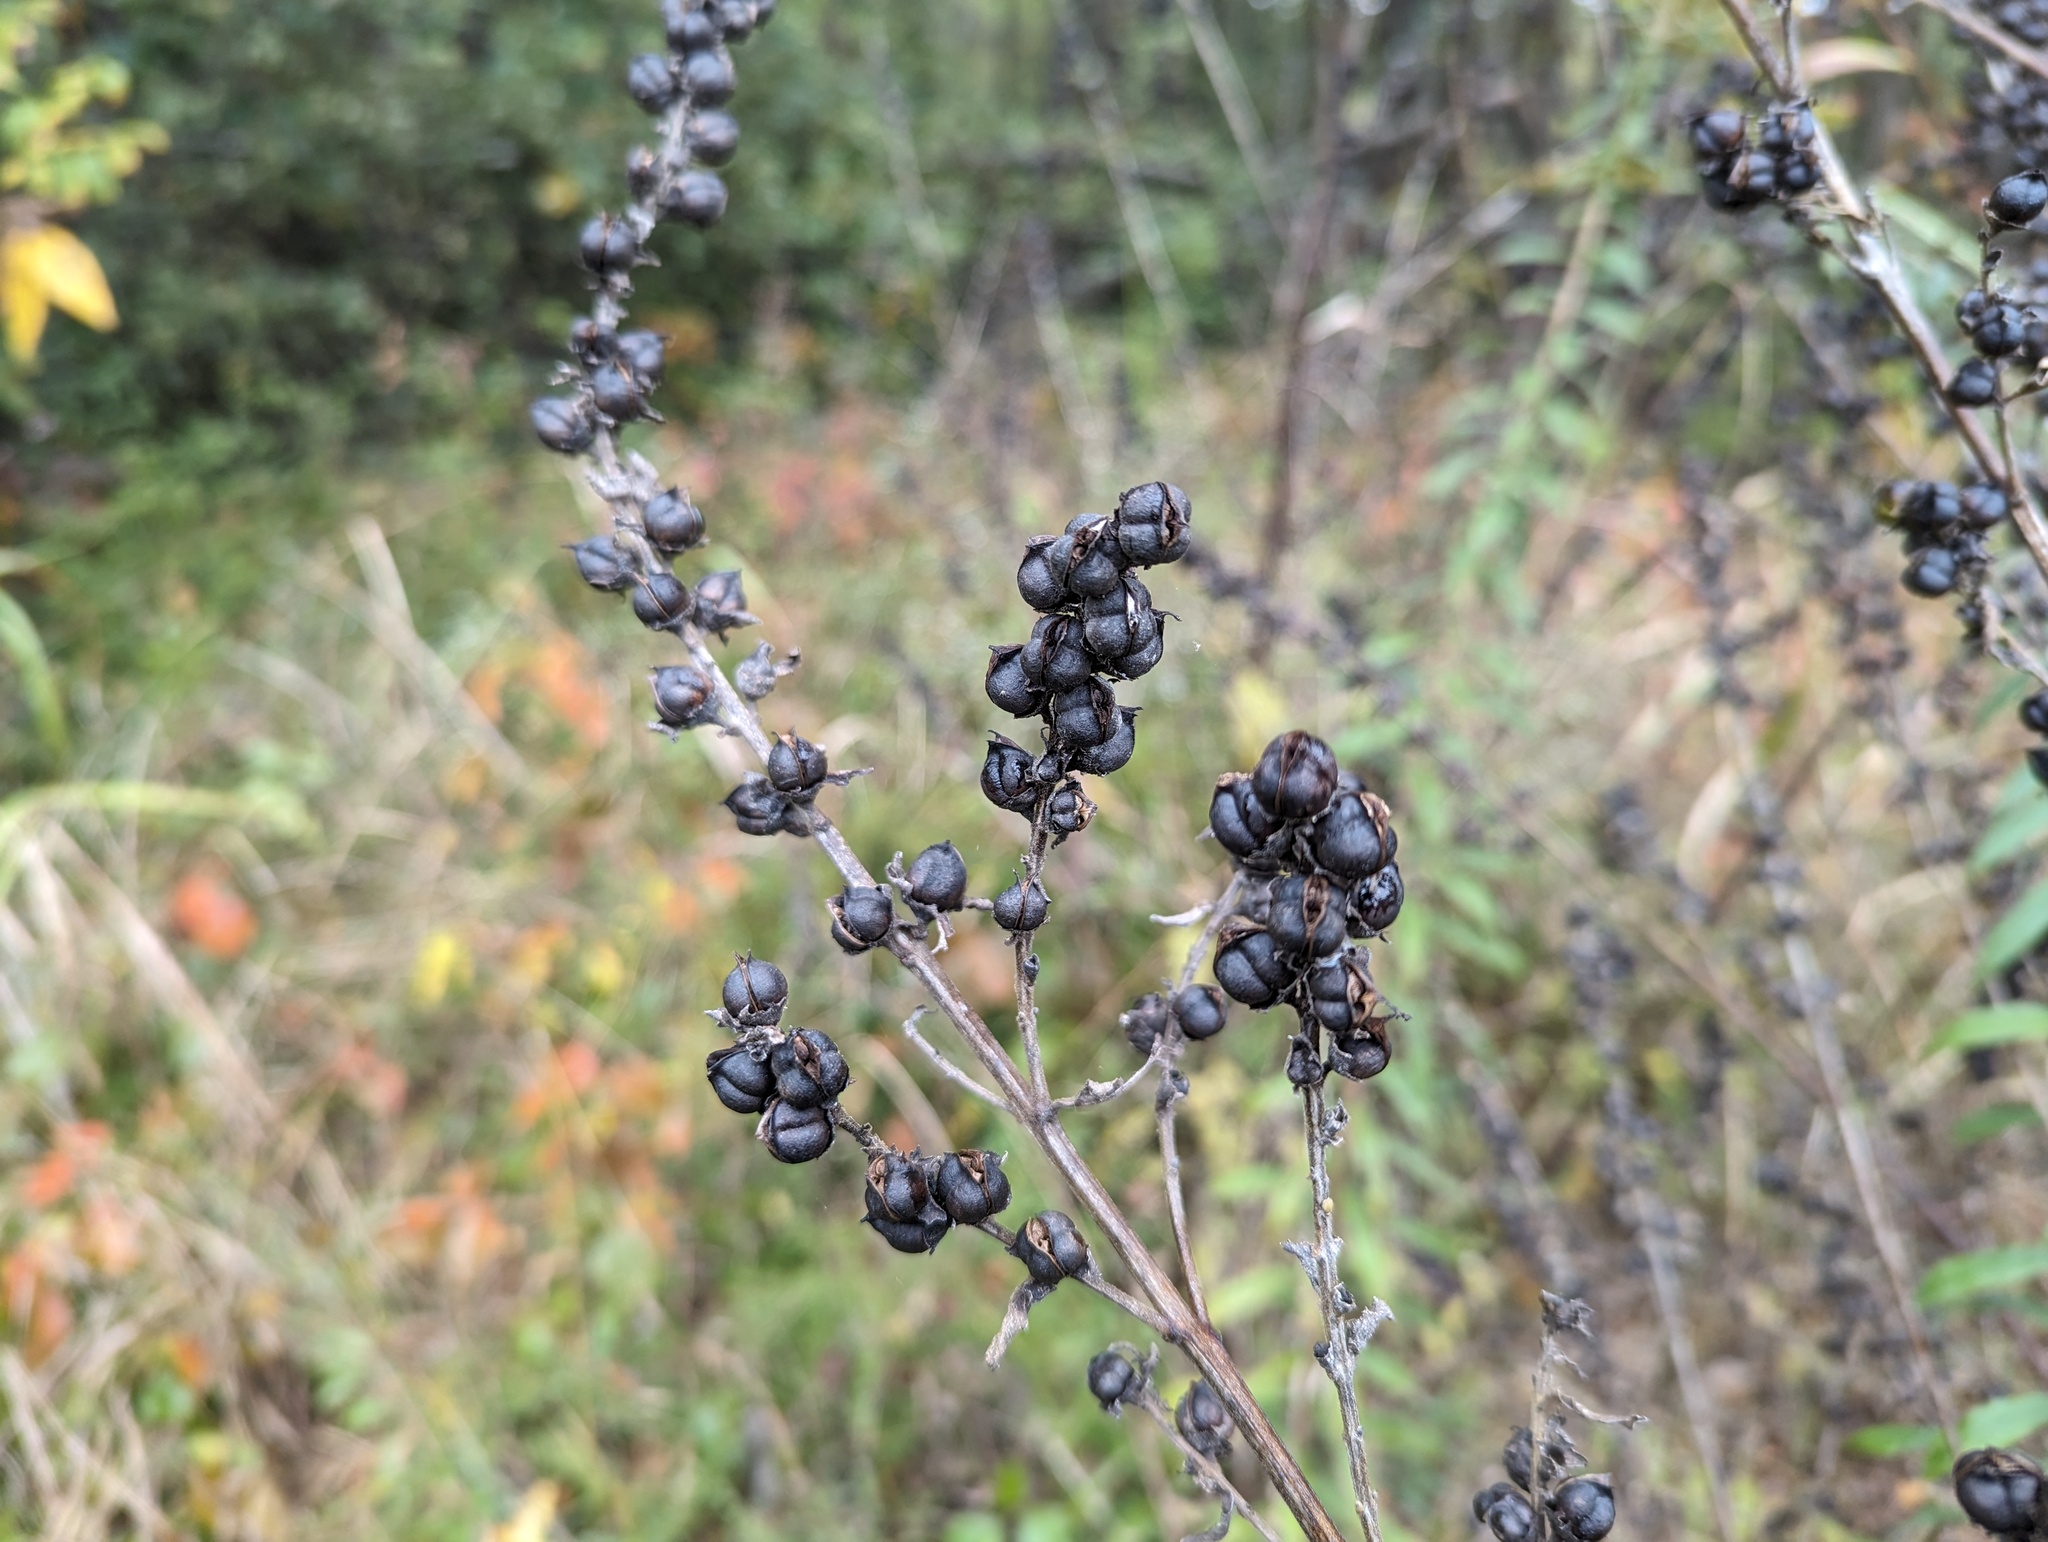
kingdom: Plantae
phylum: Tracheophyta
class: Magnoliopsida
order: Lamiales
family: Orobanchaceae
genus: Dasistoma
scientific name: Dasistoma macrophyllum
